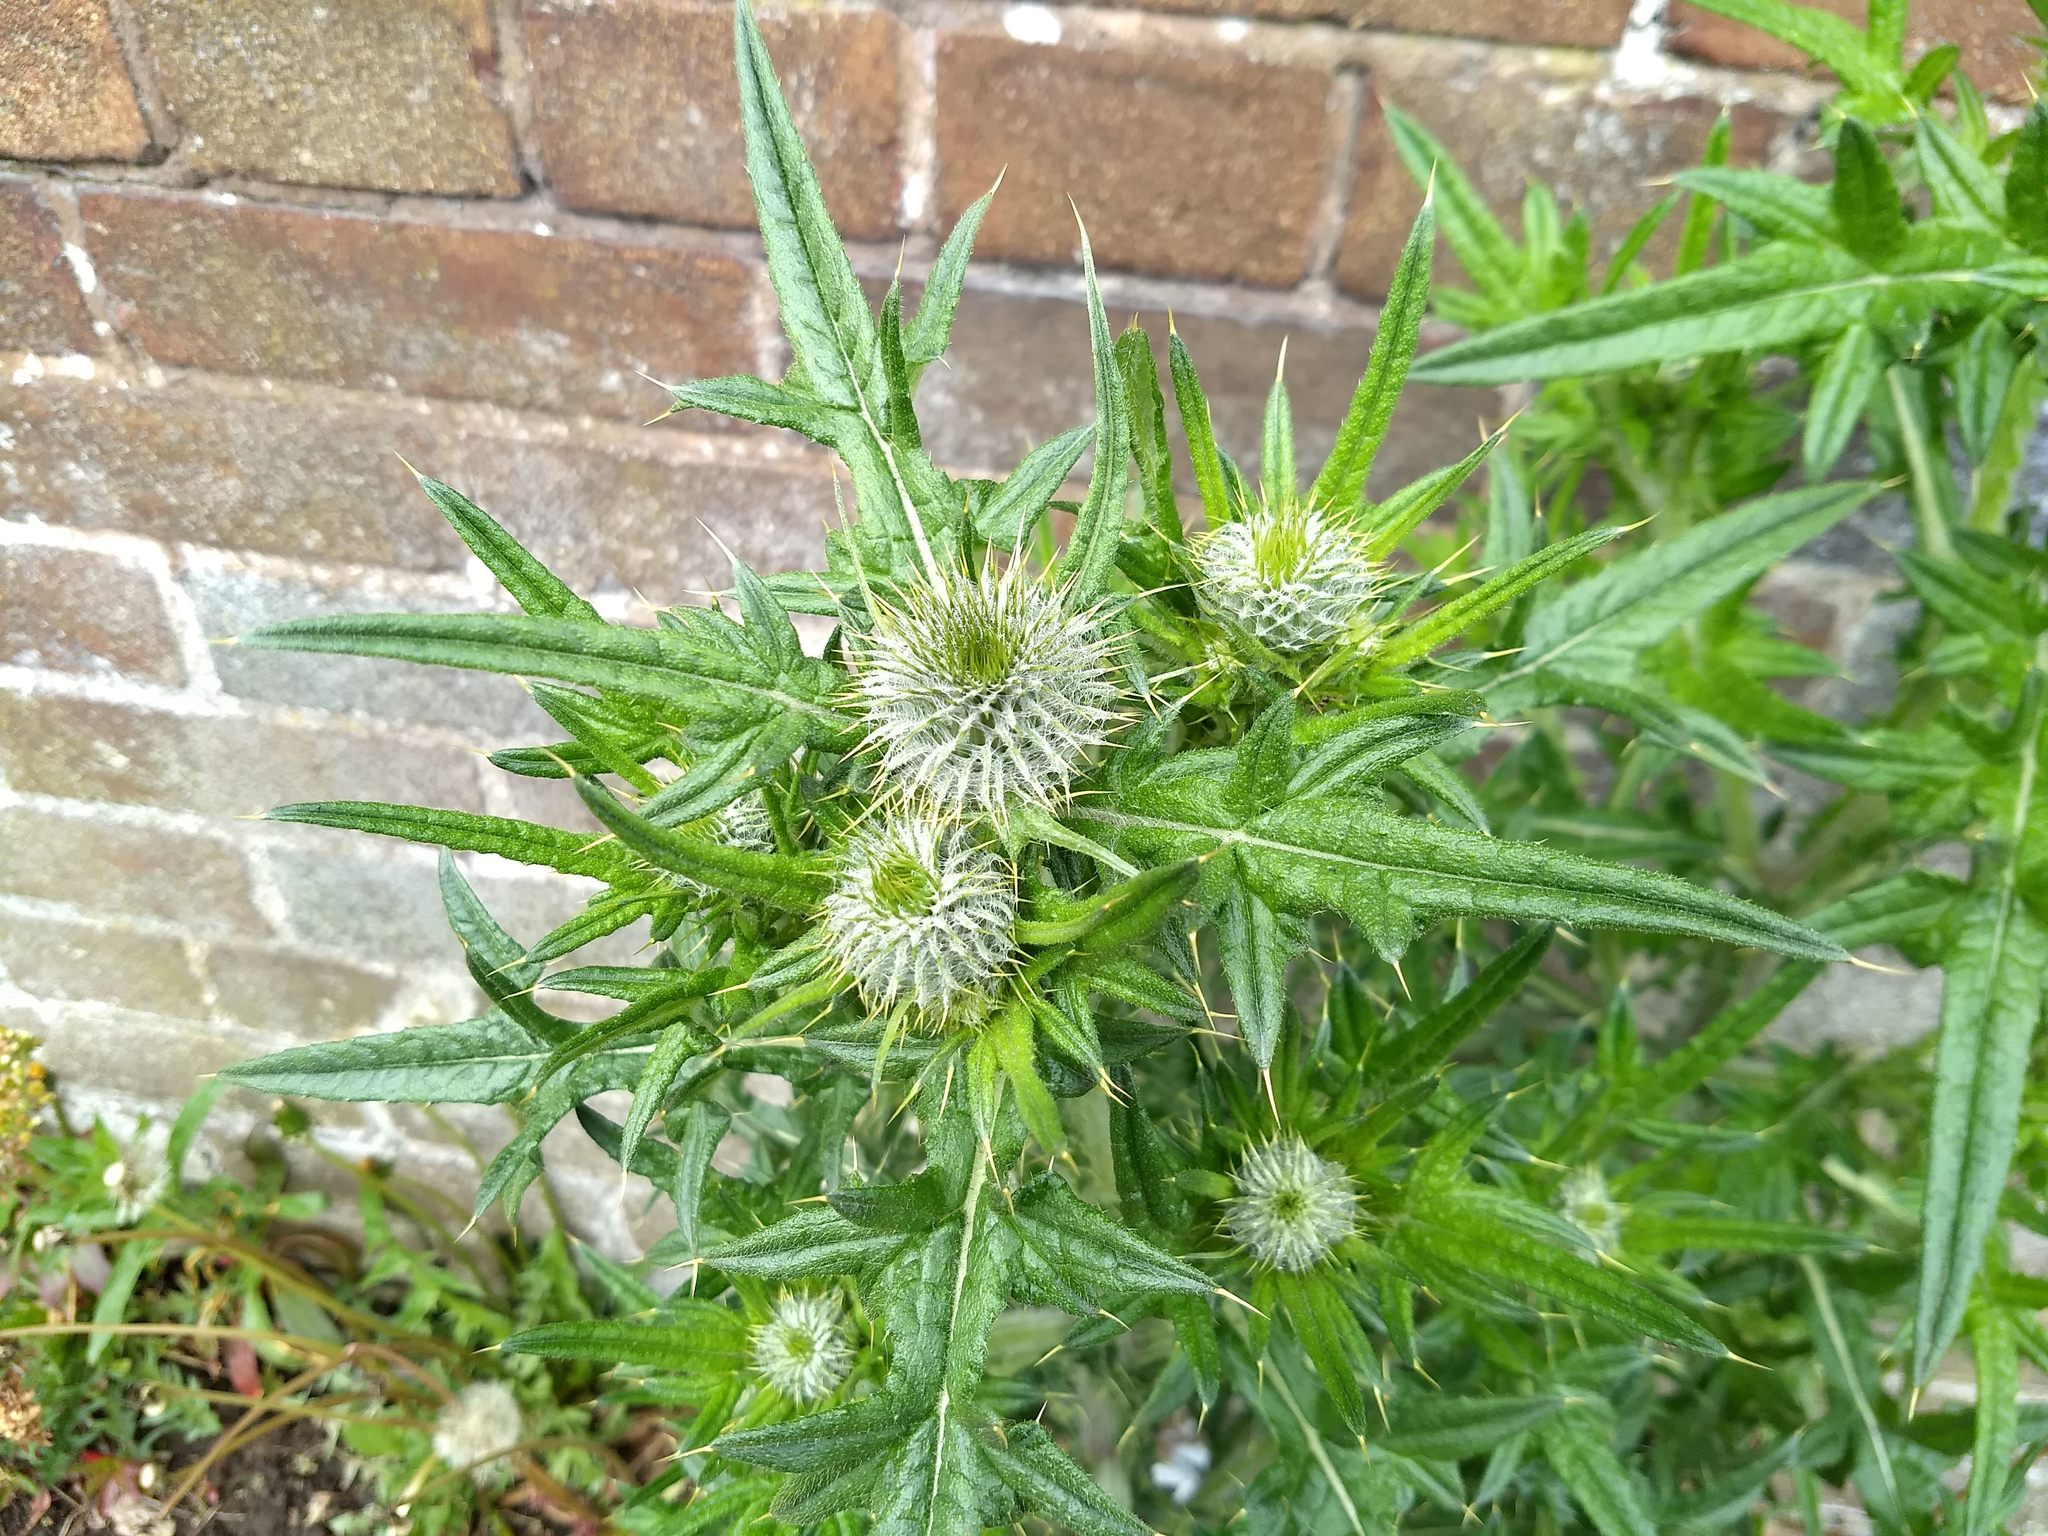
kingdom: Plantae
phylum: Tracheophyta
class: Magnoliopsida
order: Asterales
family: Asteraceae
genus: Cirsium
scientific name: Cirsium vulgare
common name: Bull thistle
